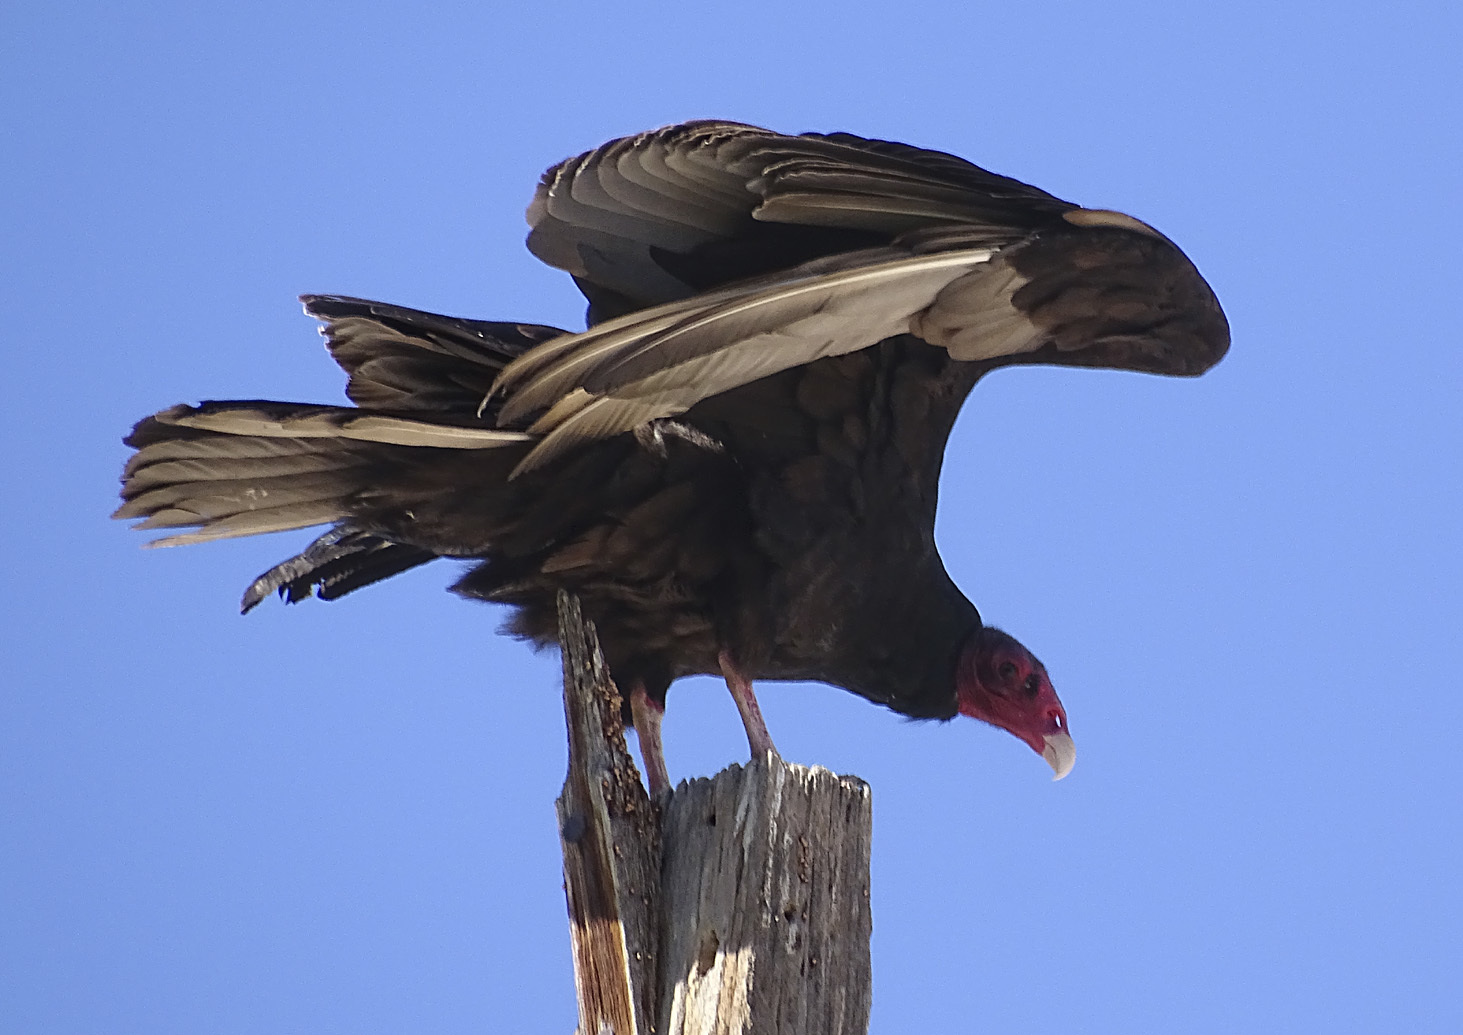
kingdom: Animalia
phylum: Chordata
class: Aves
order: Accipitriformes
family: Cathartidae
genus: Cathartes
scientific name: Cathartes aura
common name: Turkey vulture
